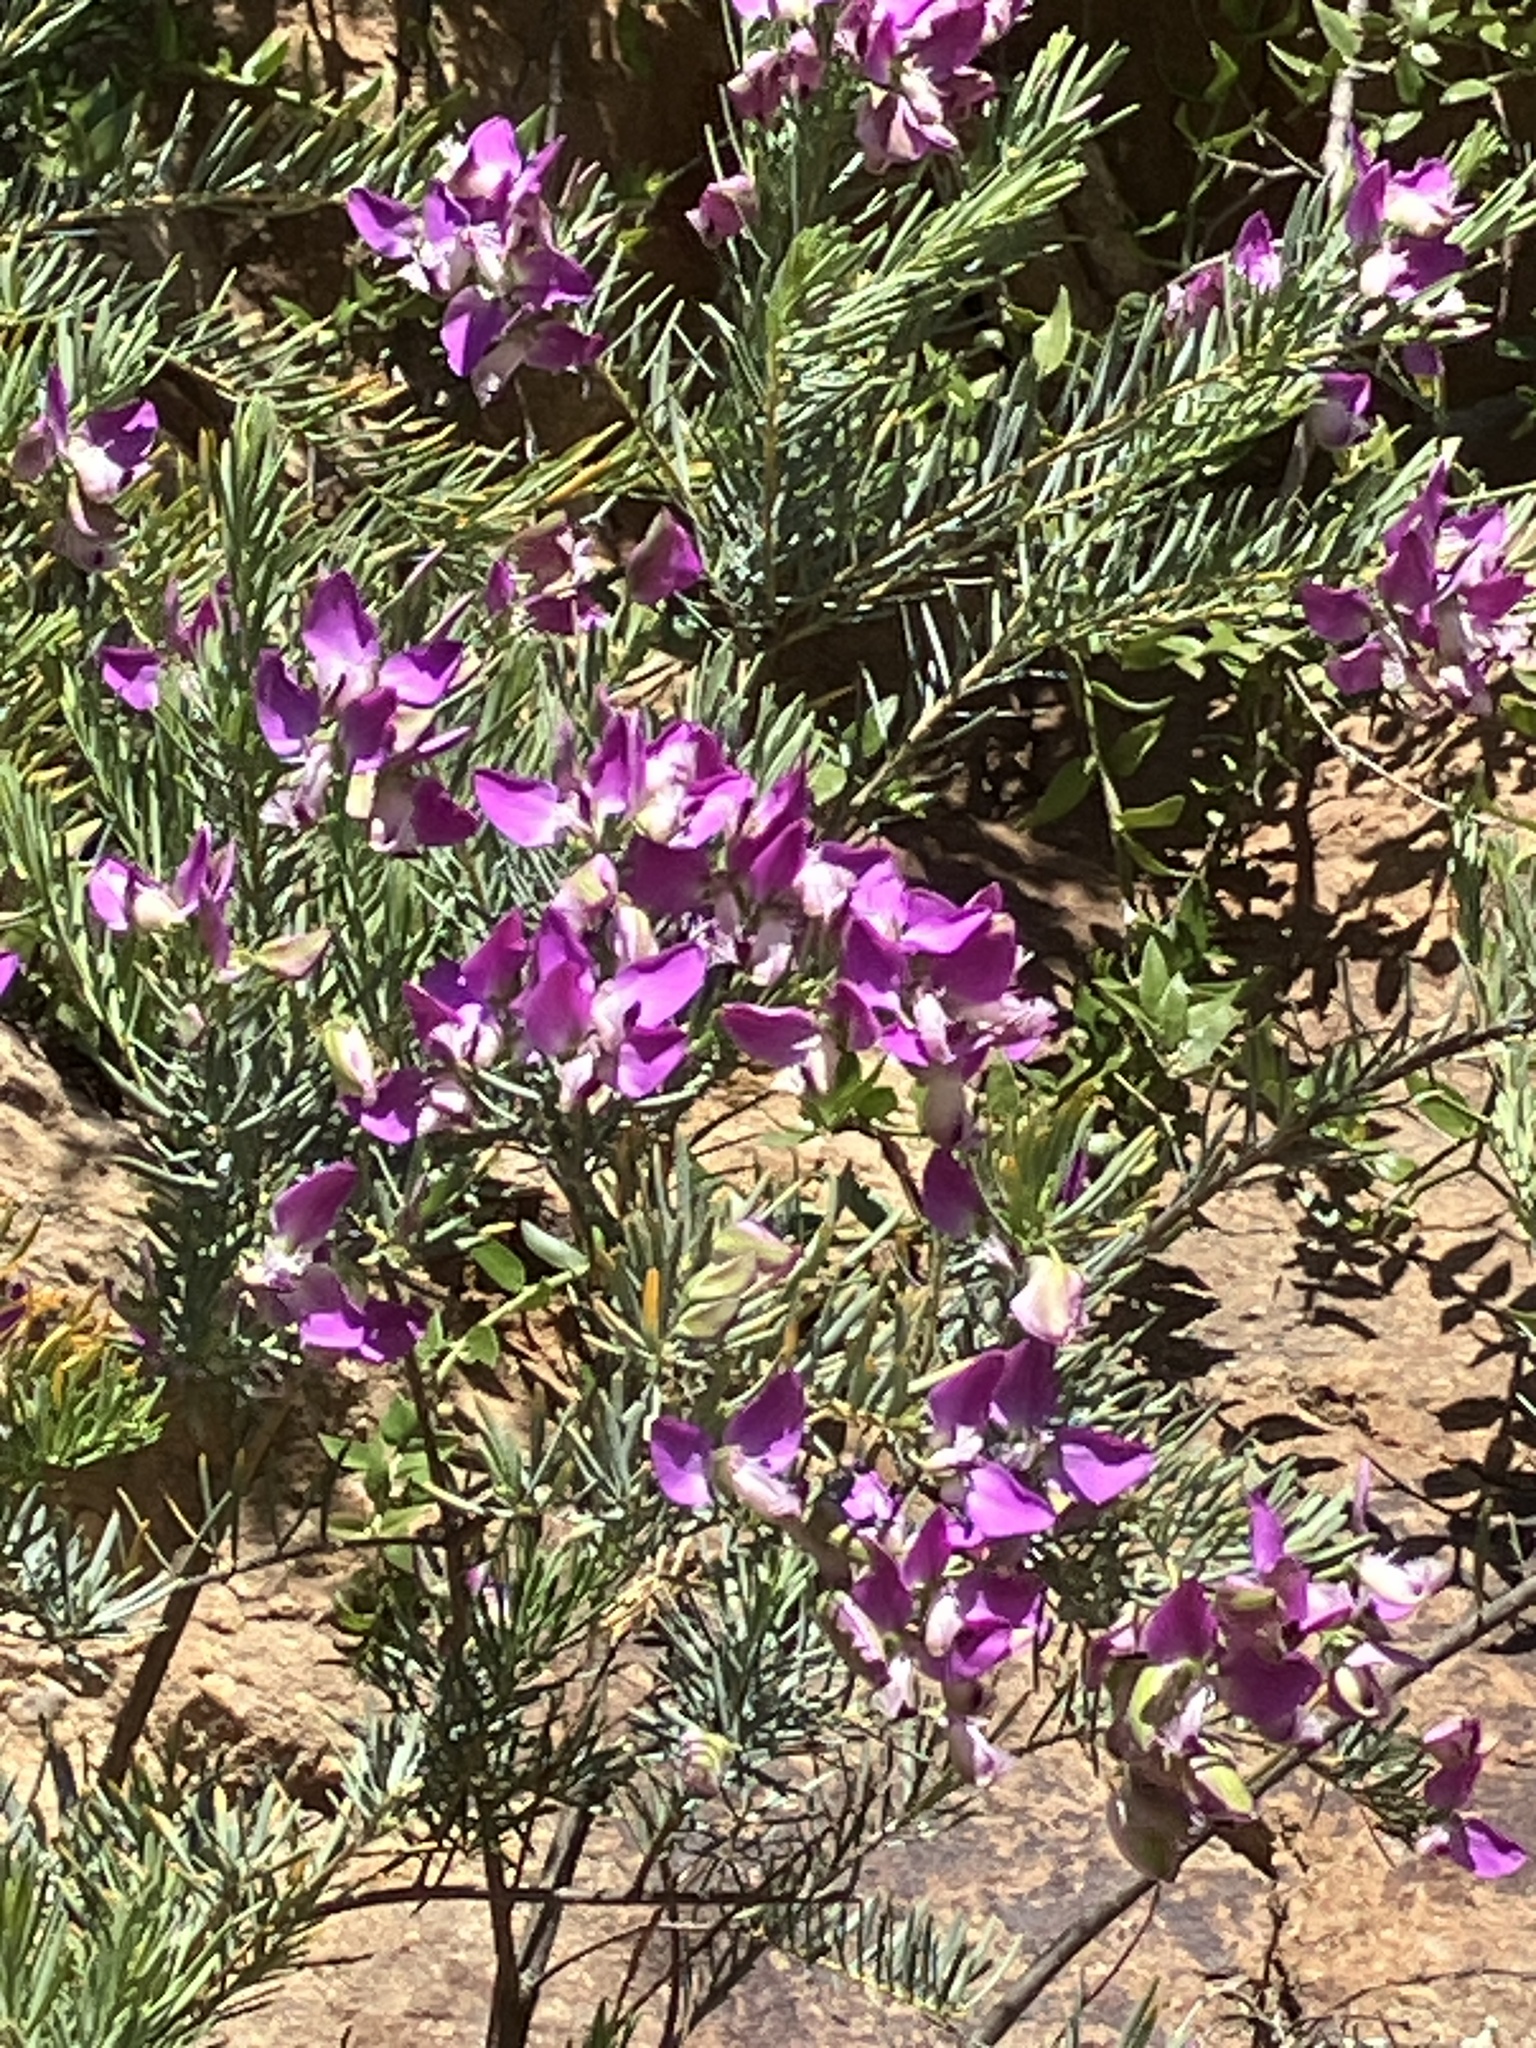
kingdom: Plantae
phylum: Tracheophyta
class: Magnoliopsida
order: Fabales
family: Polygalaceae
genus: Polygala
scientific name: Polygala myrtifolia
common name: Myrtle-leaf milkwort
